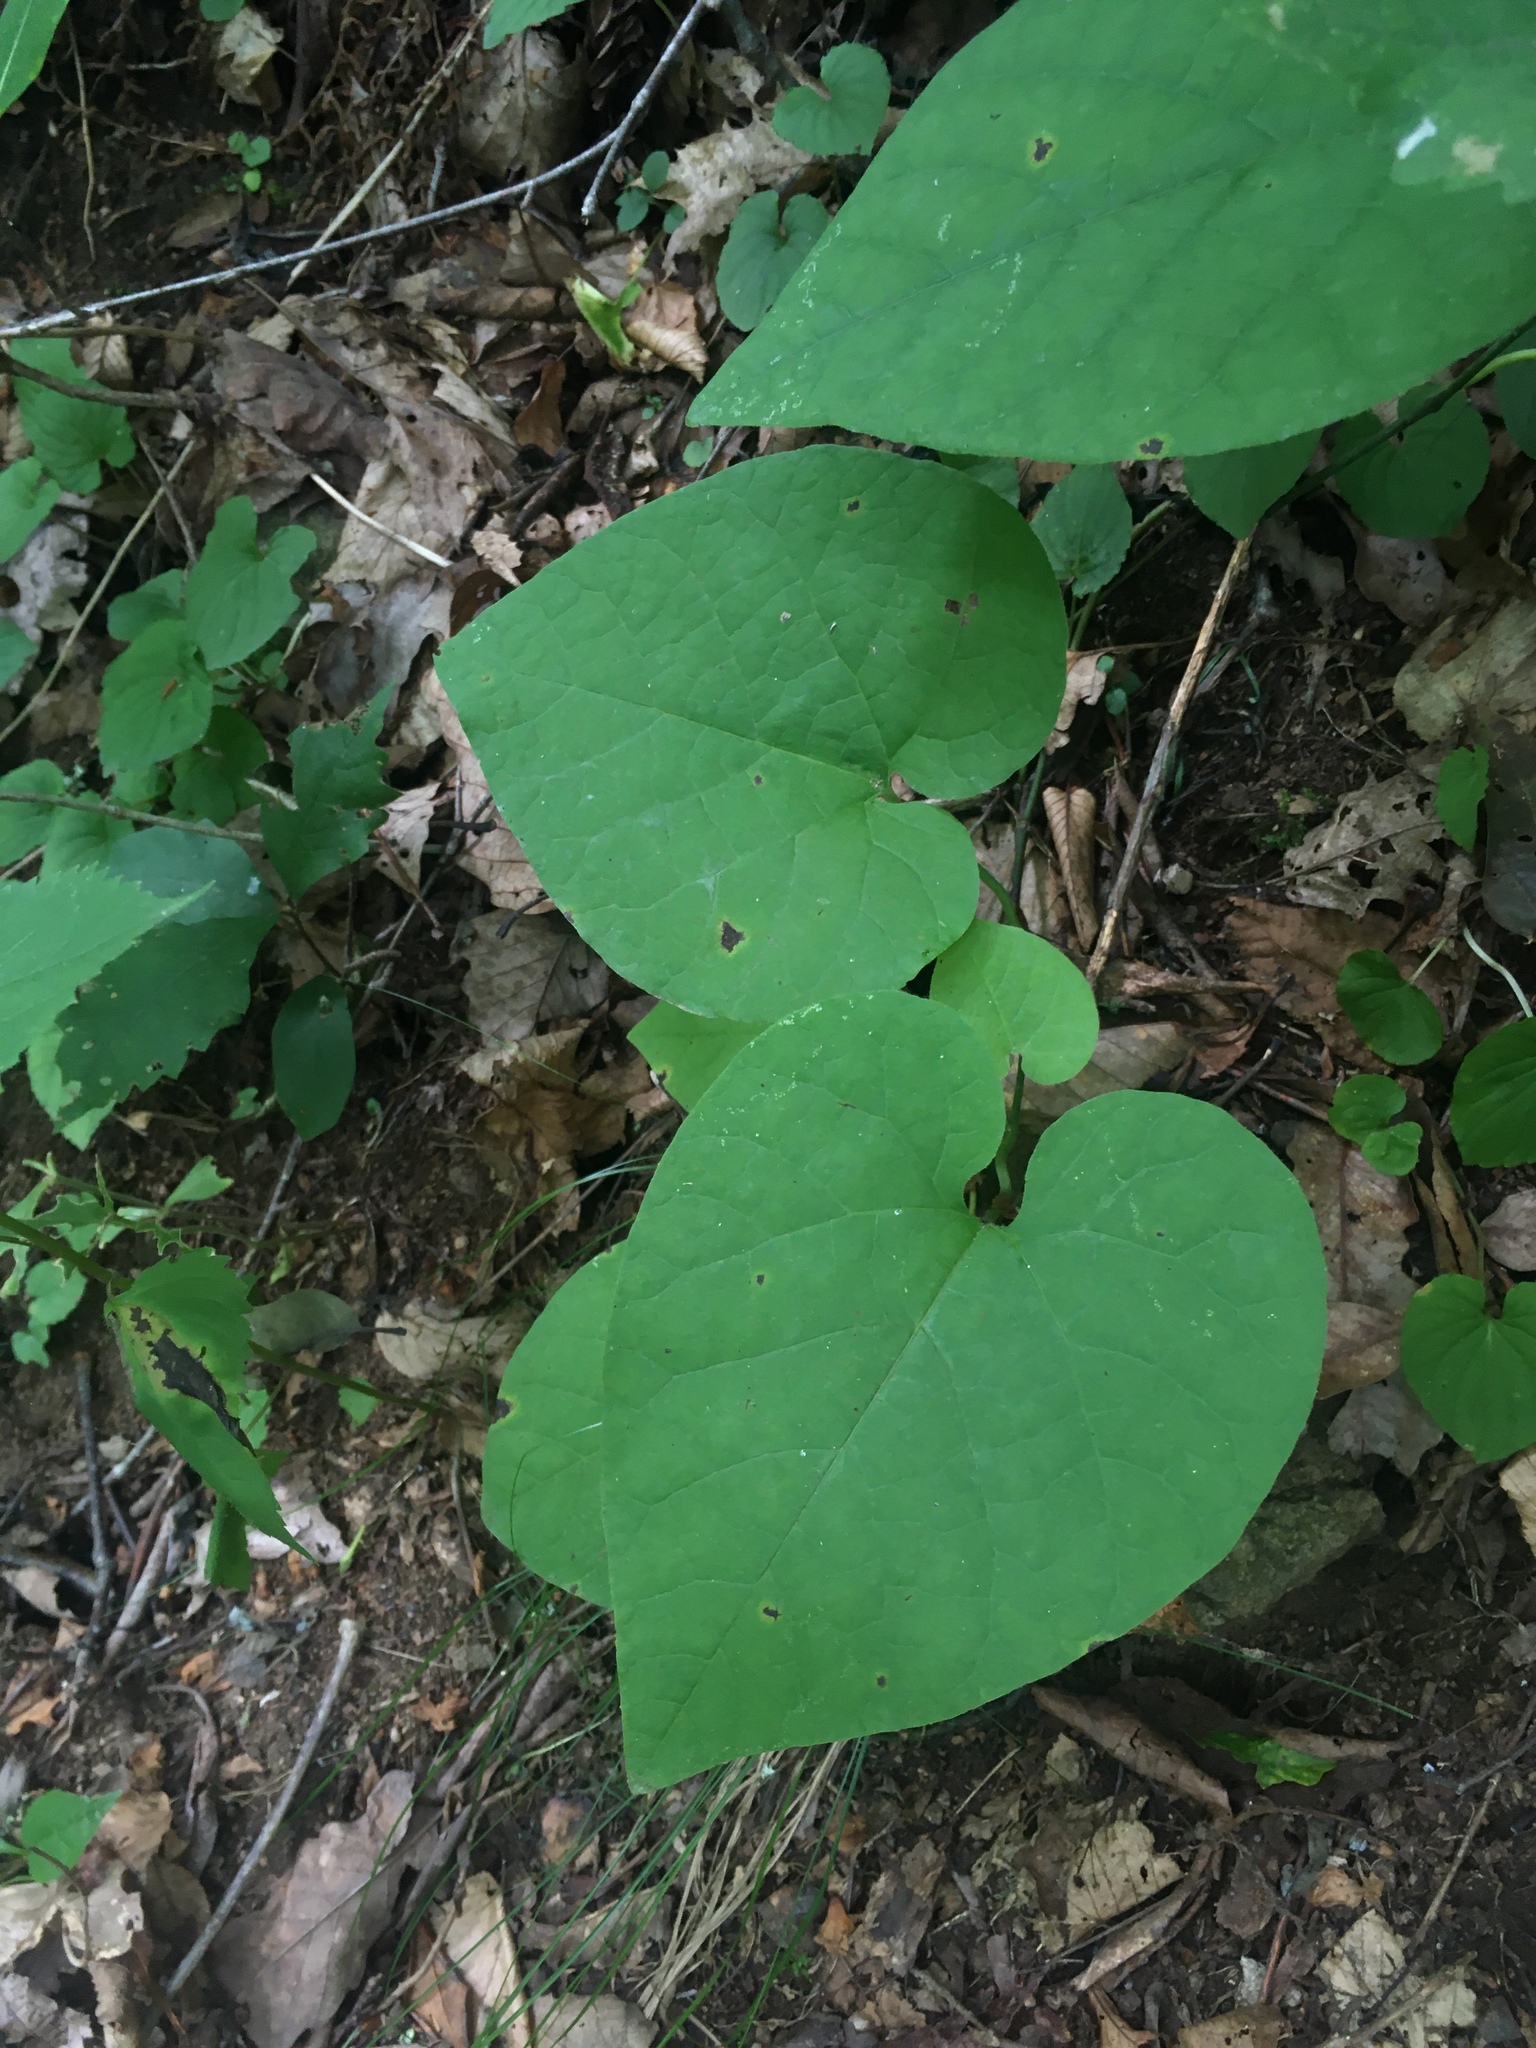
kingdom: Plantae
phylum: Tracheophyta
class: Magnoliopsida
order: Piperales
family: Aristolochiaceae
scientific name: Aristolochiaceae
